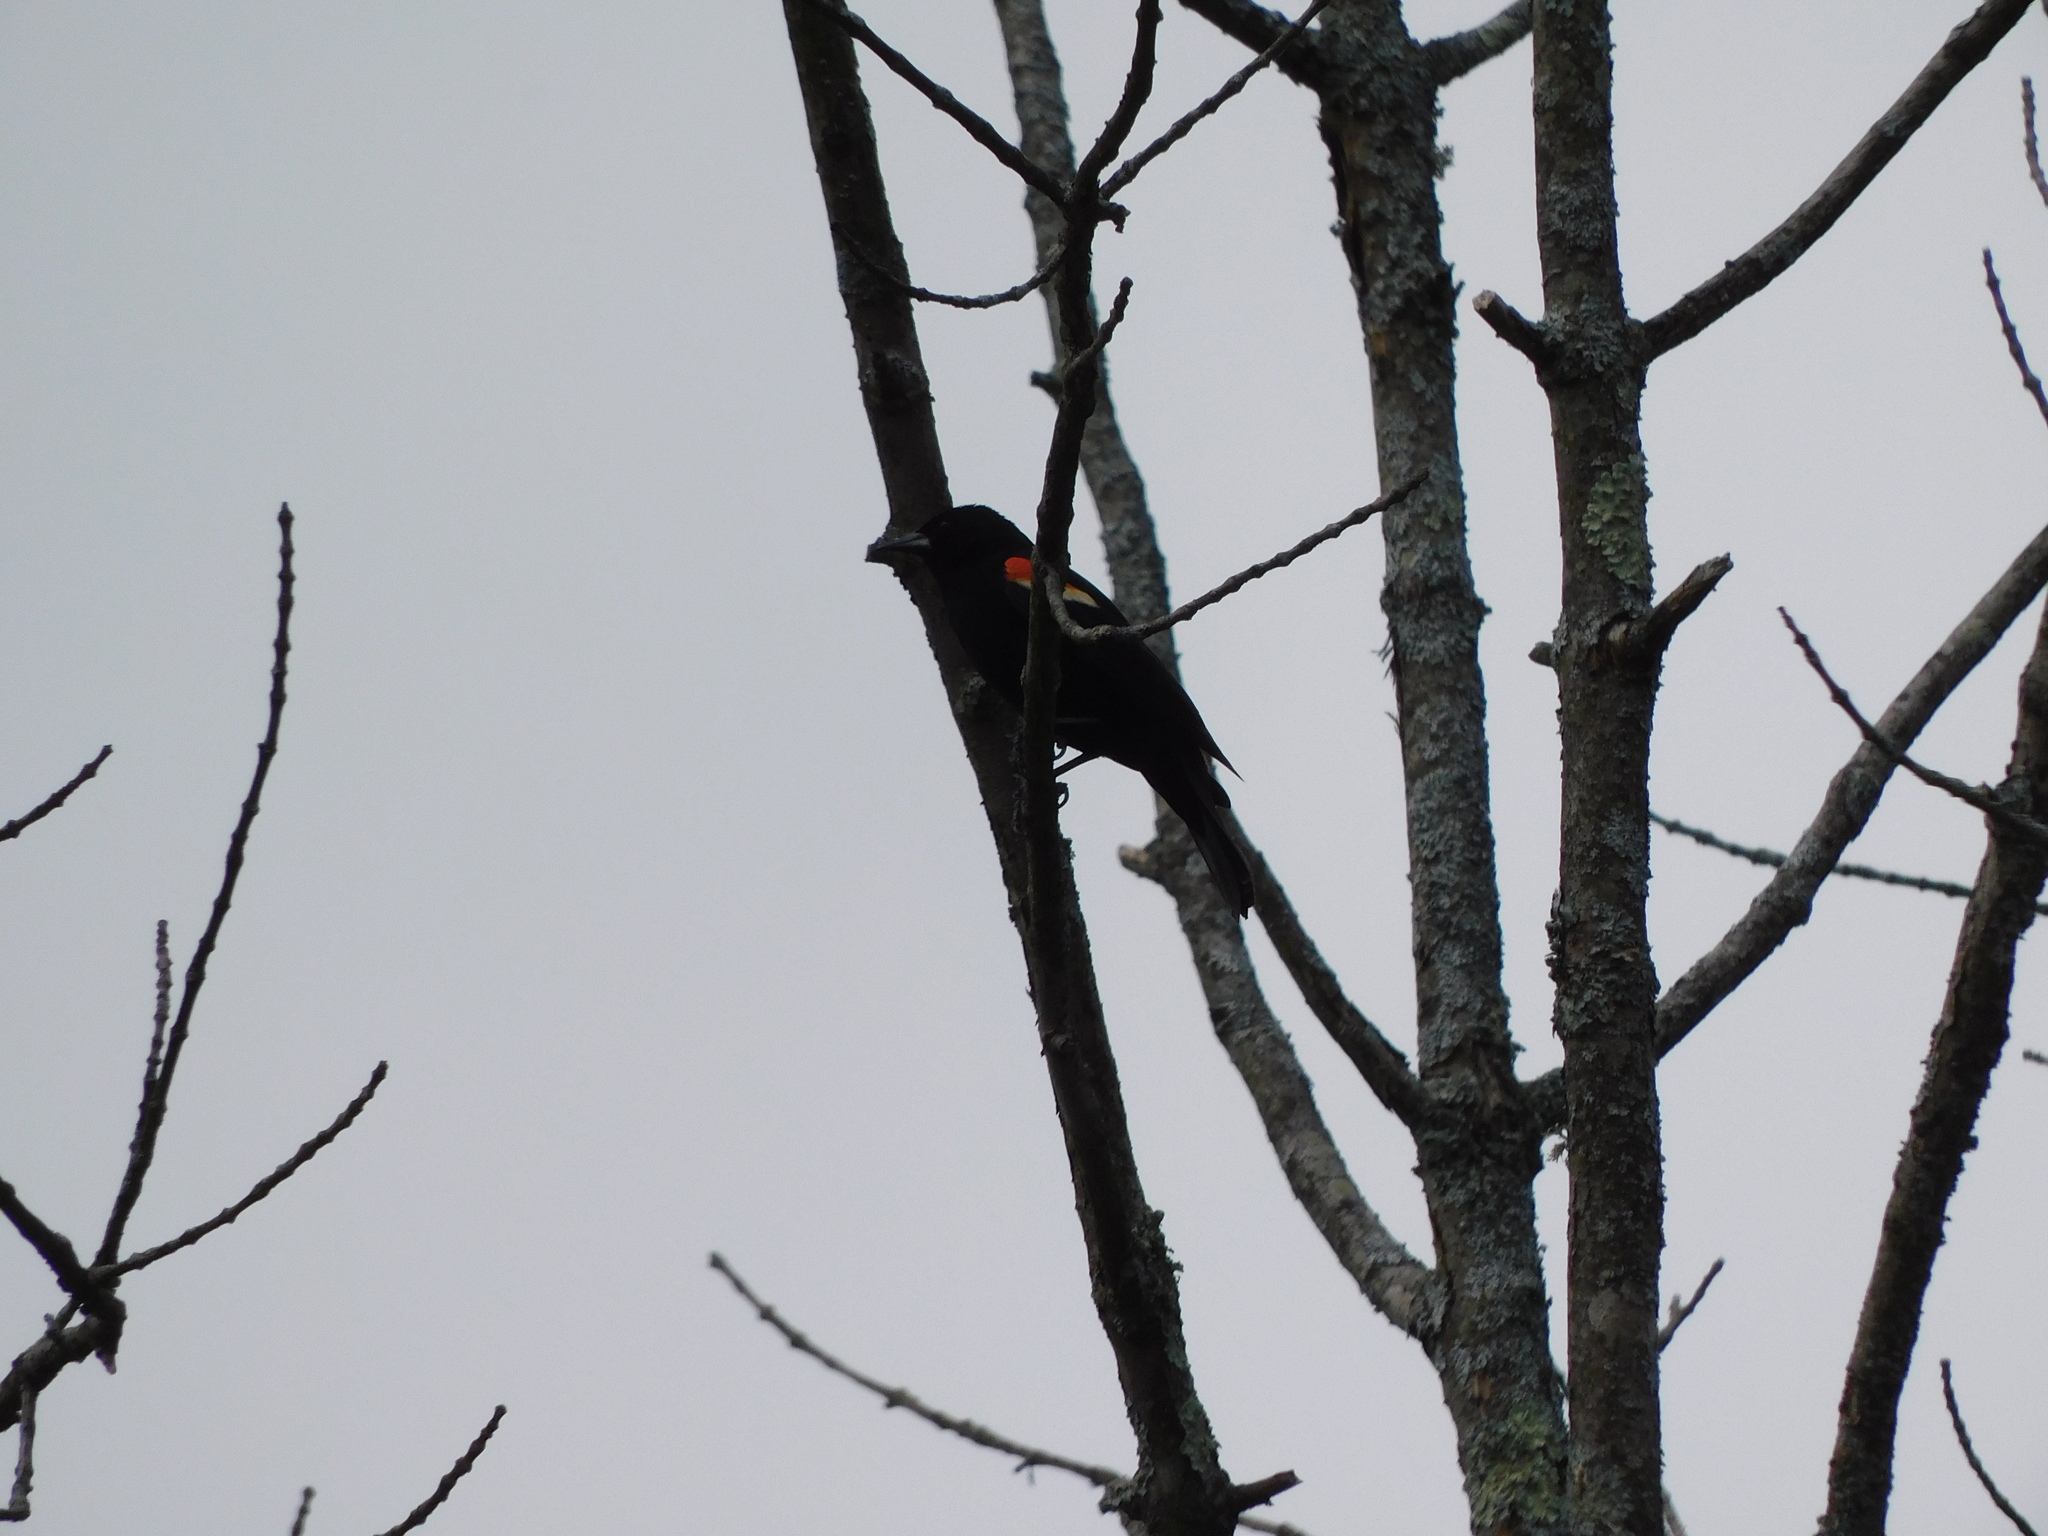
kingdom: Animalia
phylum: Chordata
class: Aves
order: Passeriformes
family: Icteridae
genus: Agelaius
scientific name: Agelaius phoeniceus
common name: Red-winged blackbird
